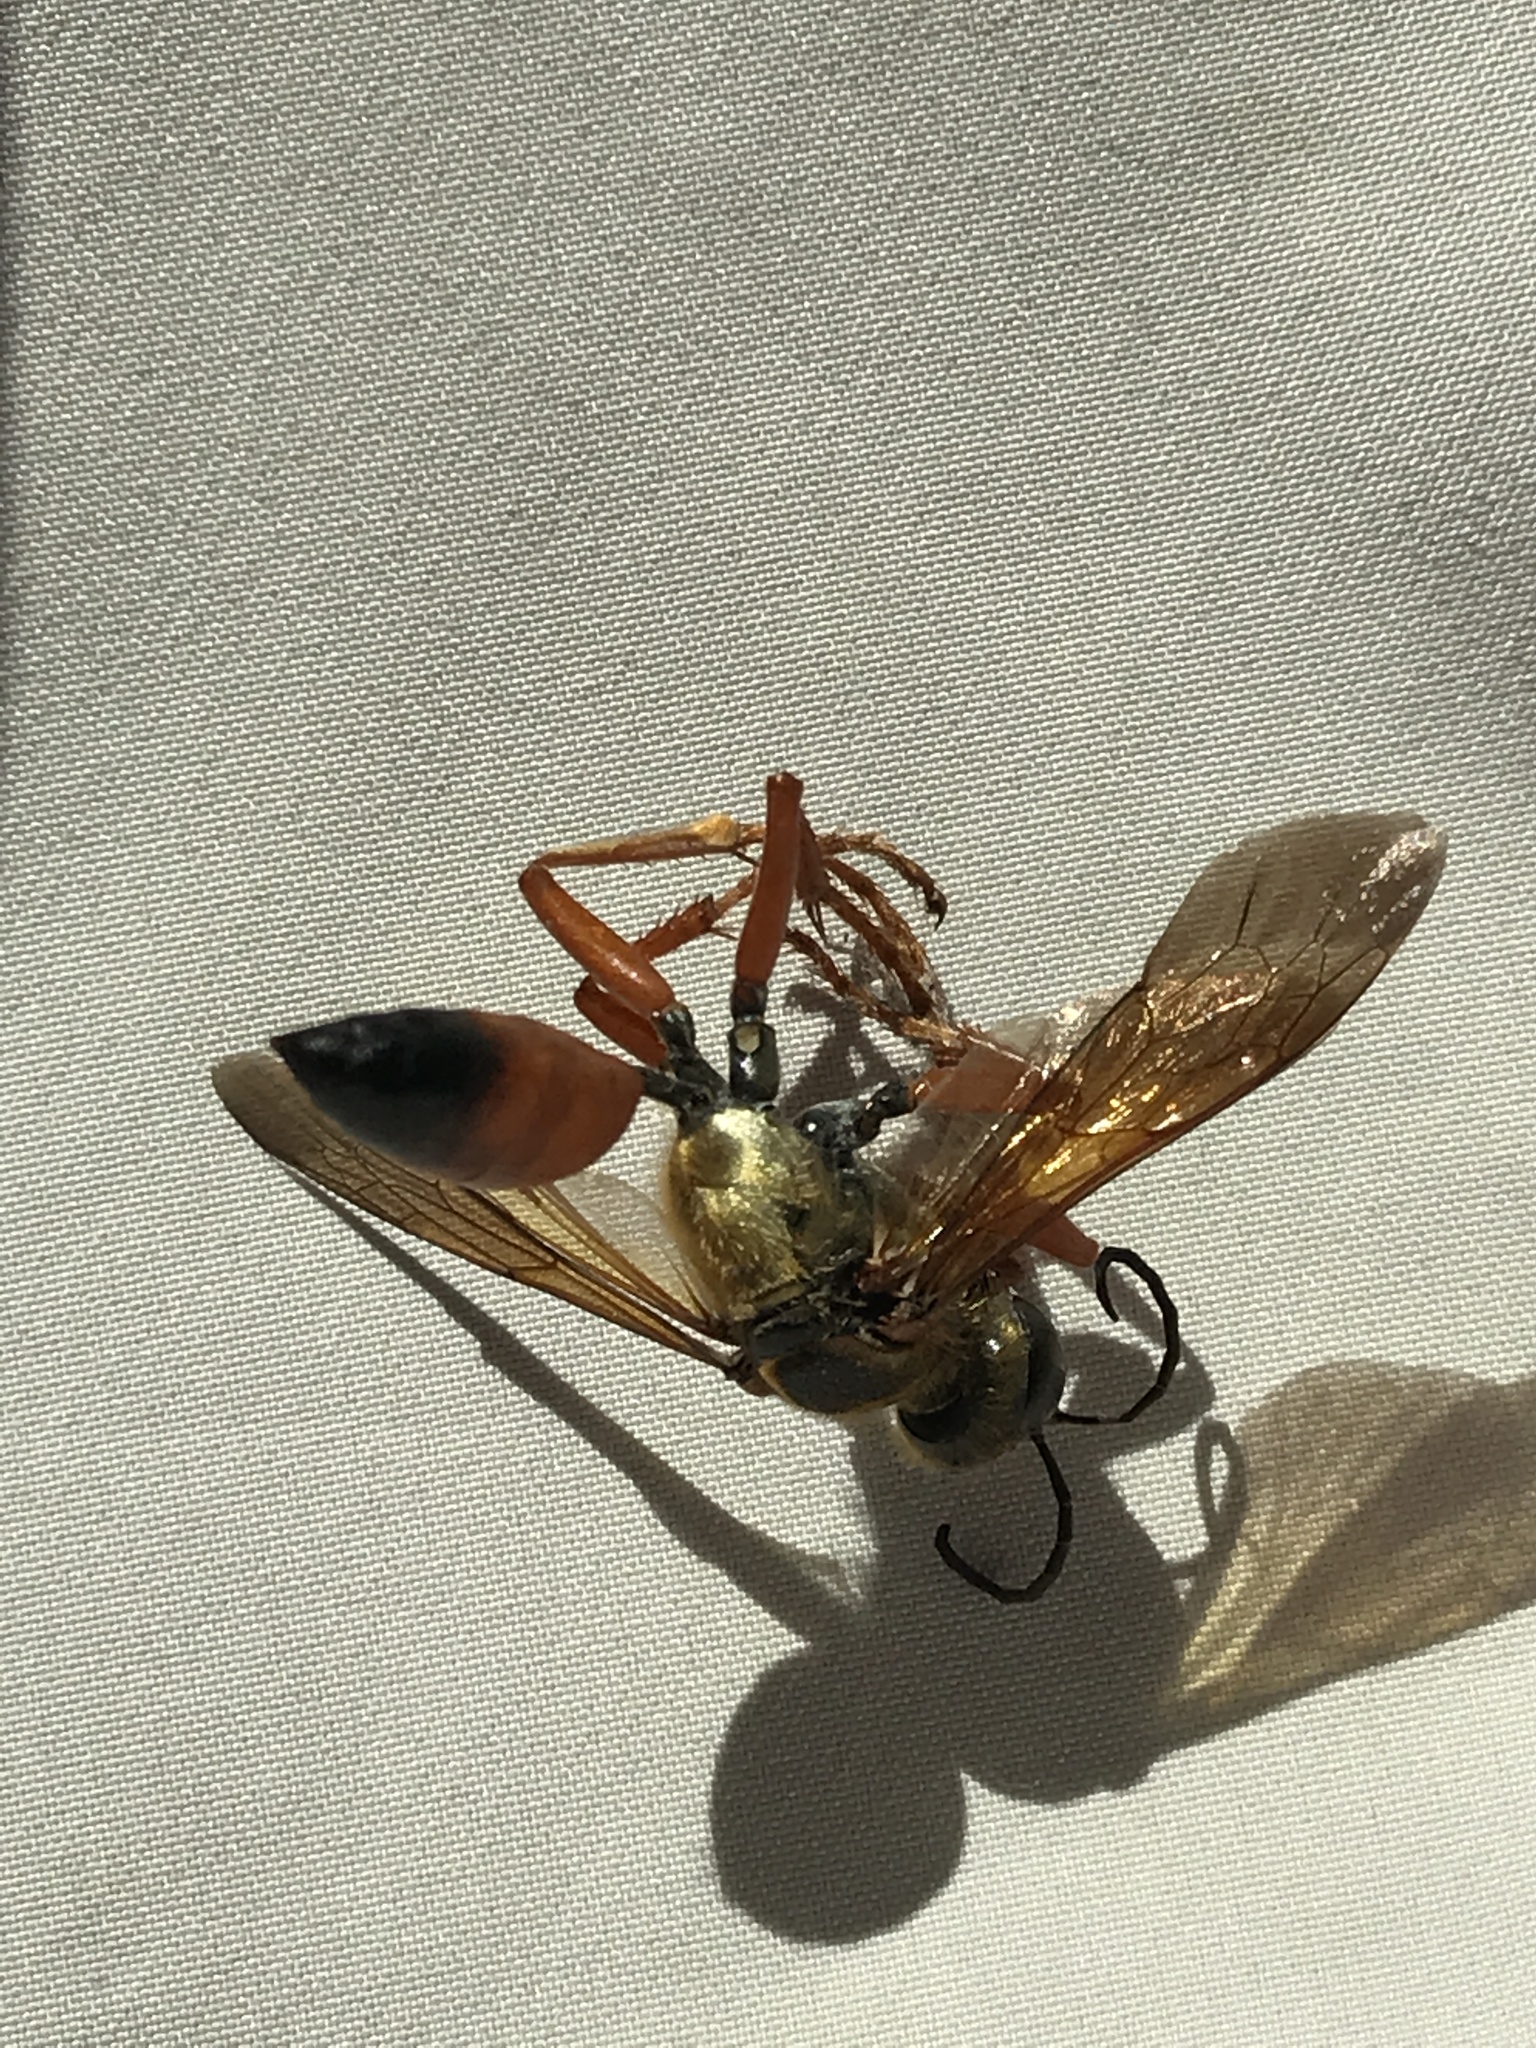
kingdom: Animalia
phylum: Arthropoda
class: Insecta
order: Hymenoptera
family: Sphecidae
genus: Sphex
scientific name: Sphex ichneumoneus
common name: Great golden digger wasp
